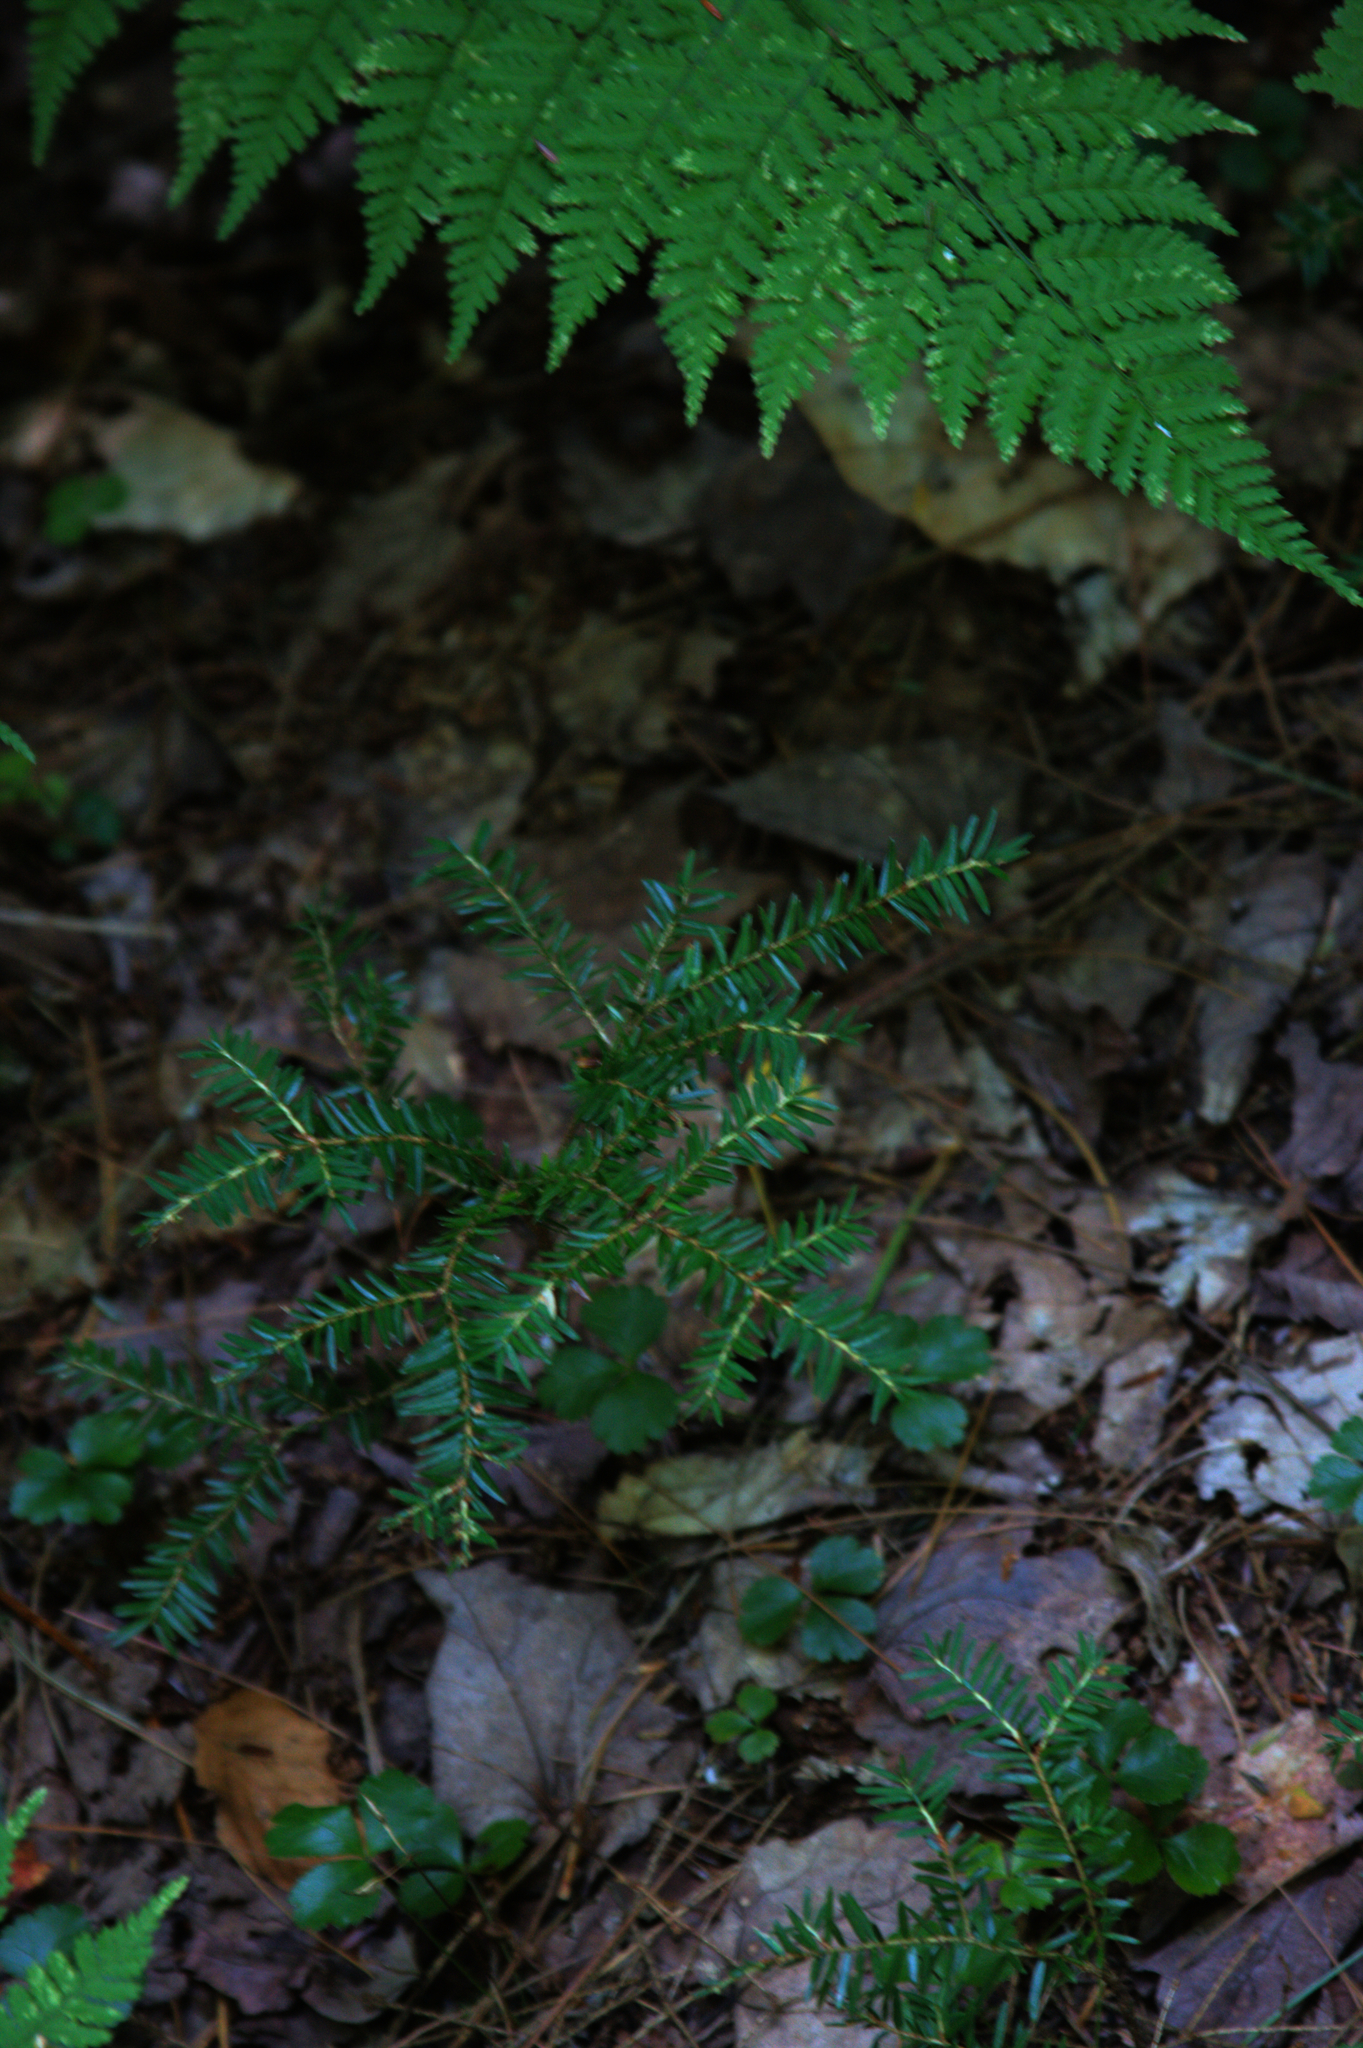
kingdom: Plantae
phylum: Tracheophyta
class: Pinopsida
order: Pinales
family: Pinaceae
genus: Tsuga
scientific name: Tsuga canadensis
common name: Eastern hemlock
